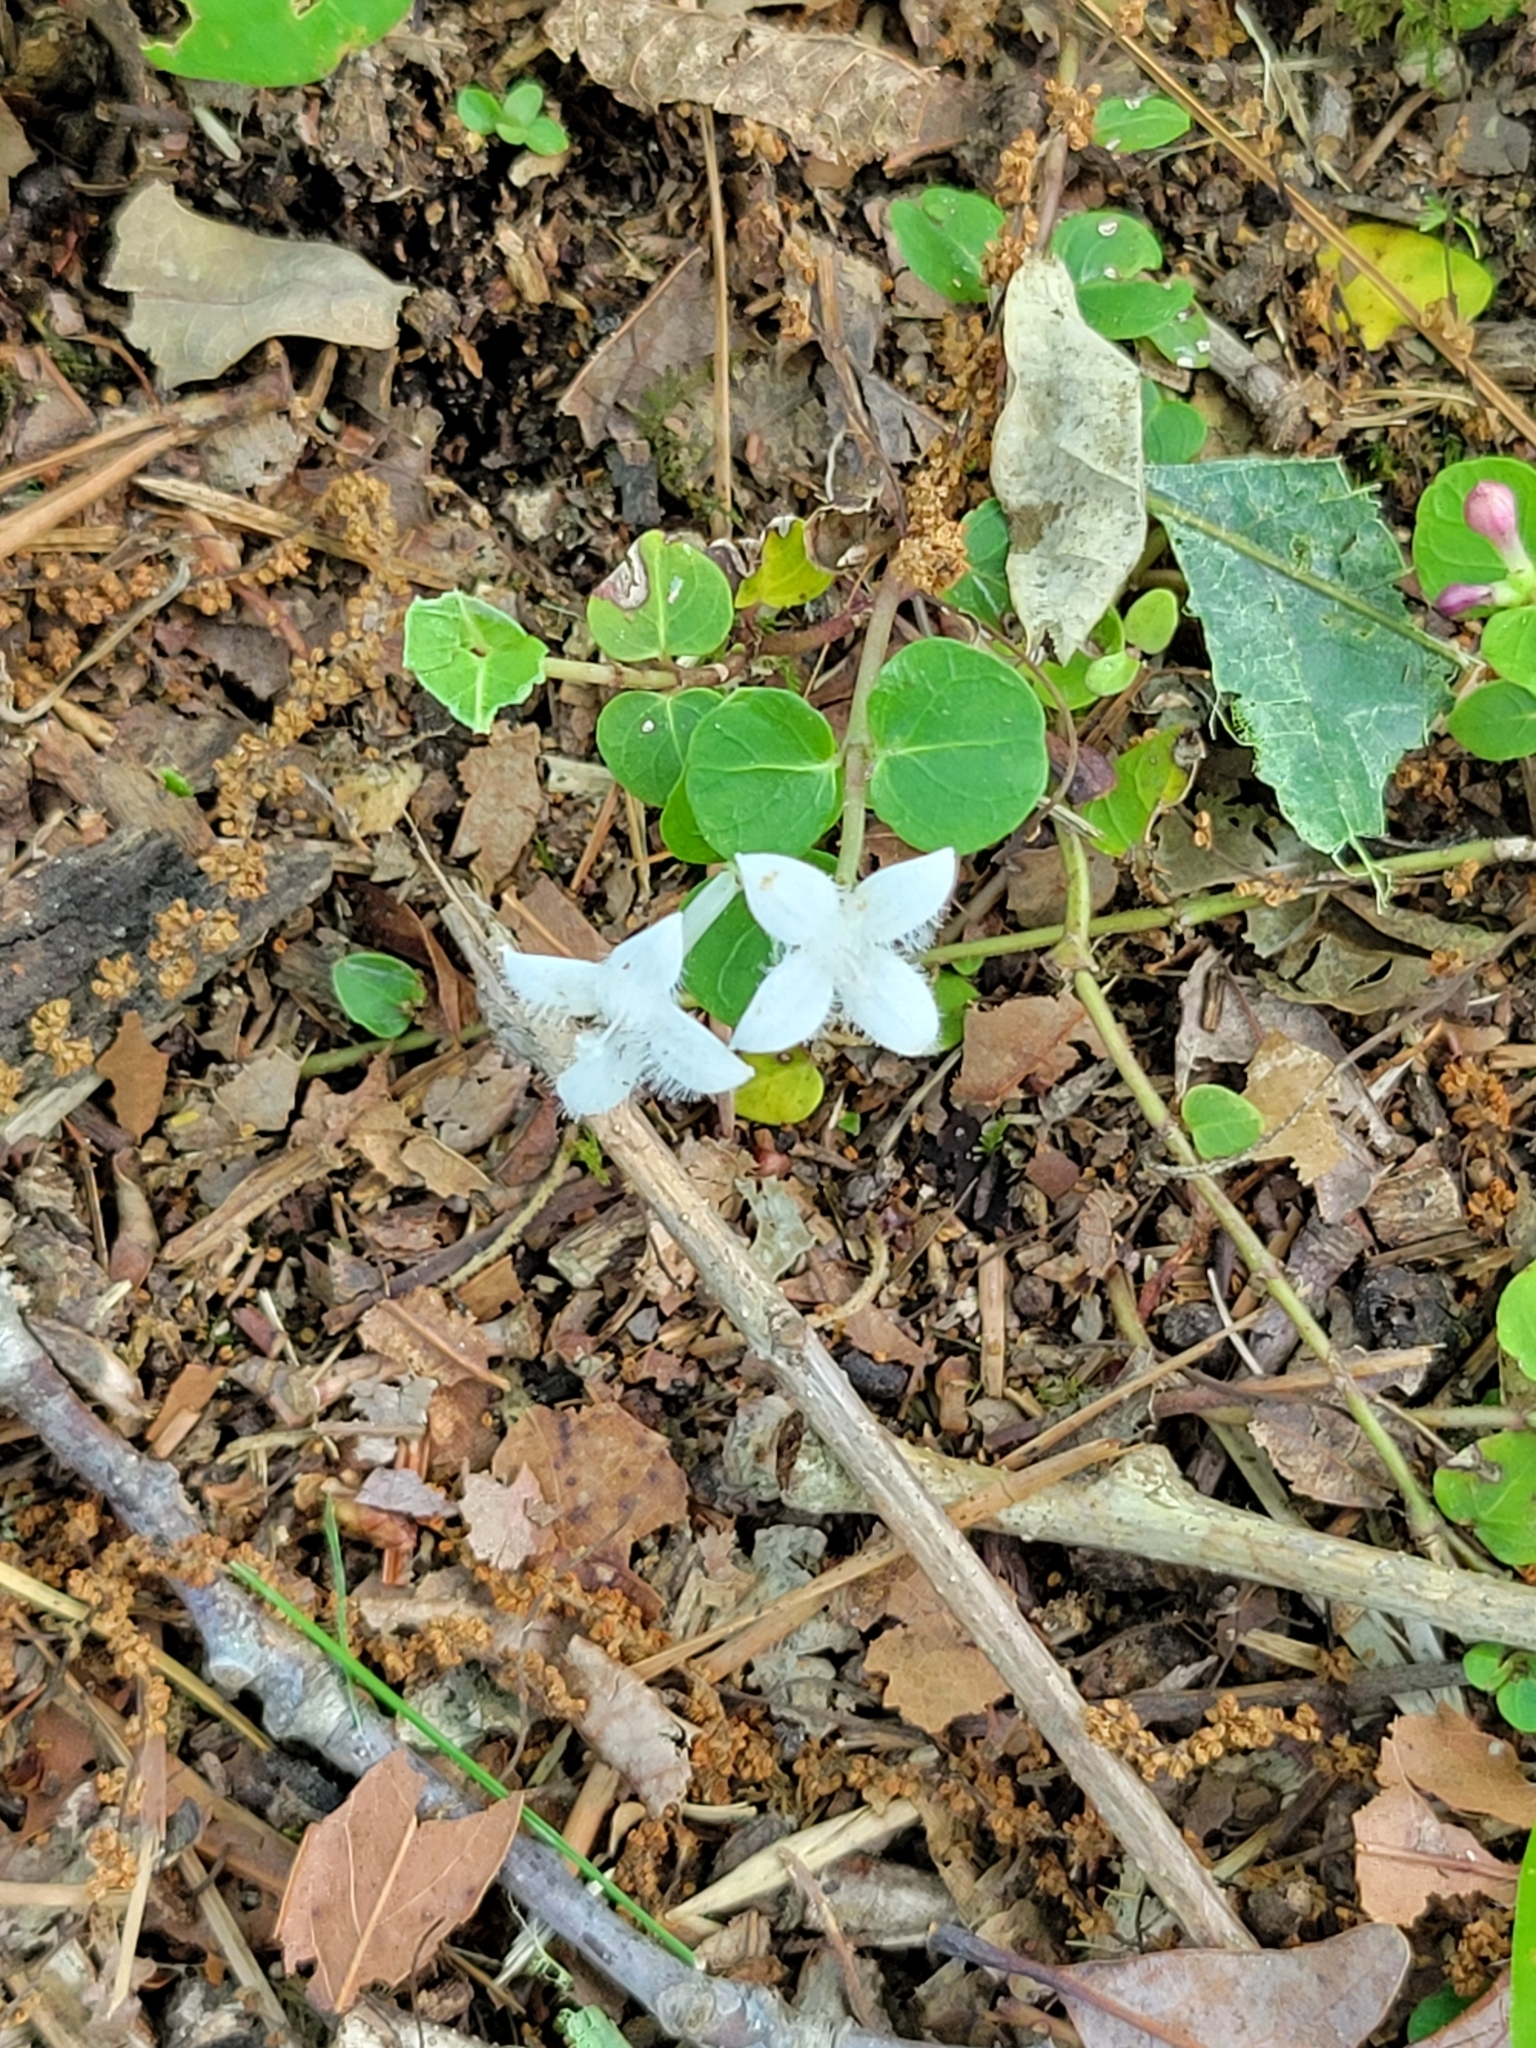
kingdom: Plantae
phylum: Tracheophyta
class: Magnoliopsida
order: Gentianales
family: Rubiaceae
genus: Mitchella
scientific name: Mitchella repens
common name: Partridge-berry
